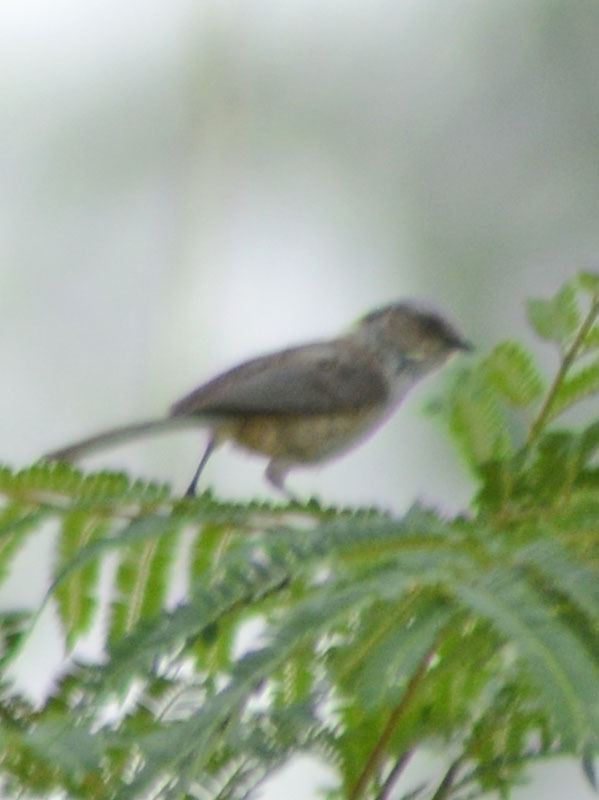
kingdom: Animalia
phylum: Chordata
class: Aves
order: Passeriformes
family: Aegithalidae
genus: Psaltriparus
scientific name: Psaltriparus minimus
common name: American bushtit
